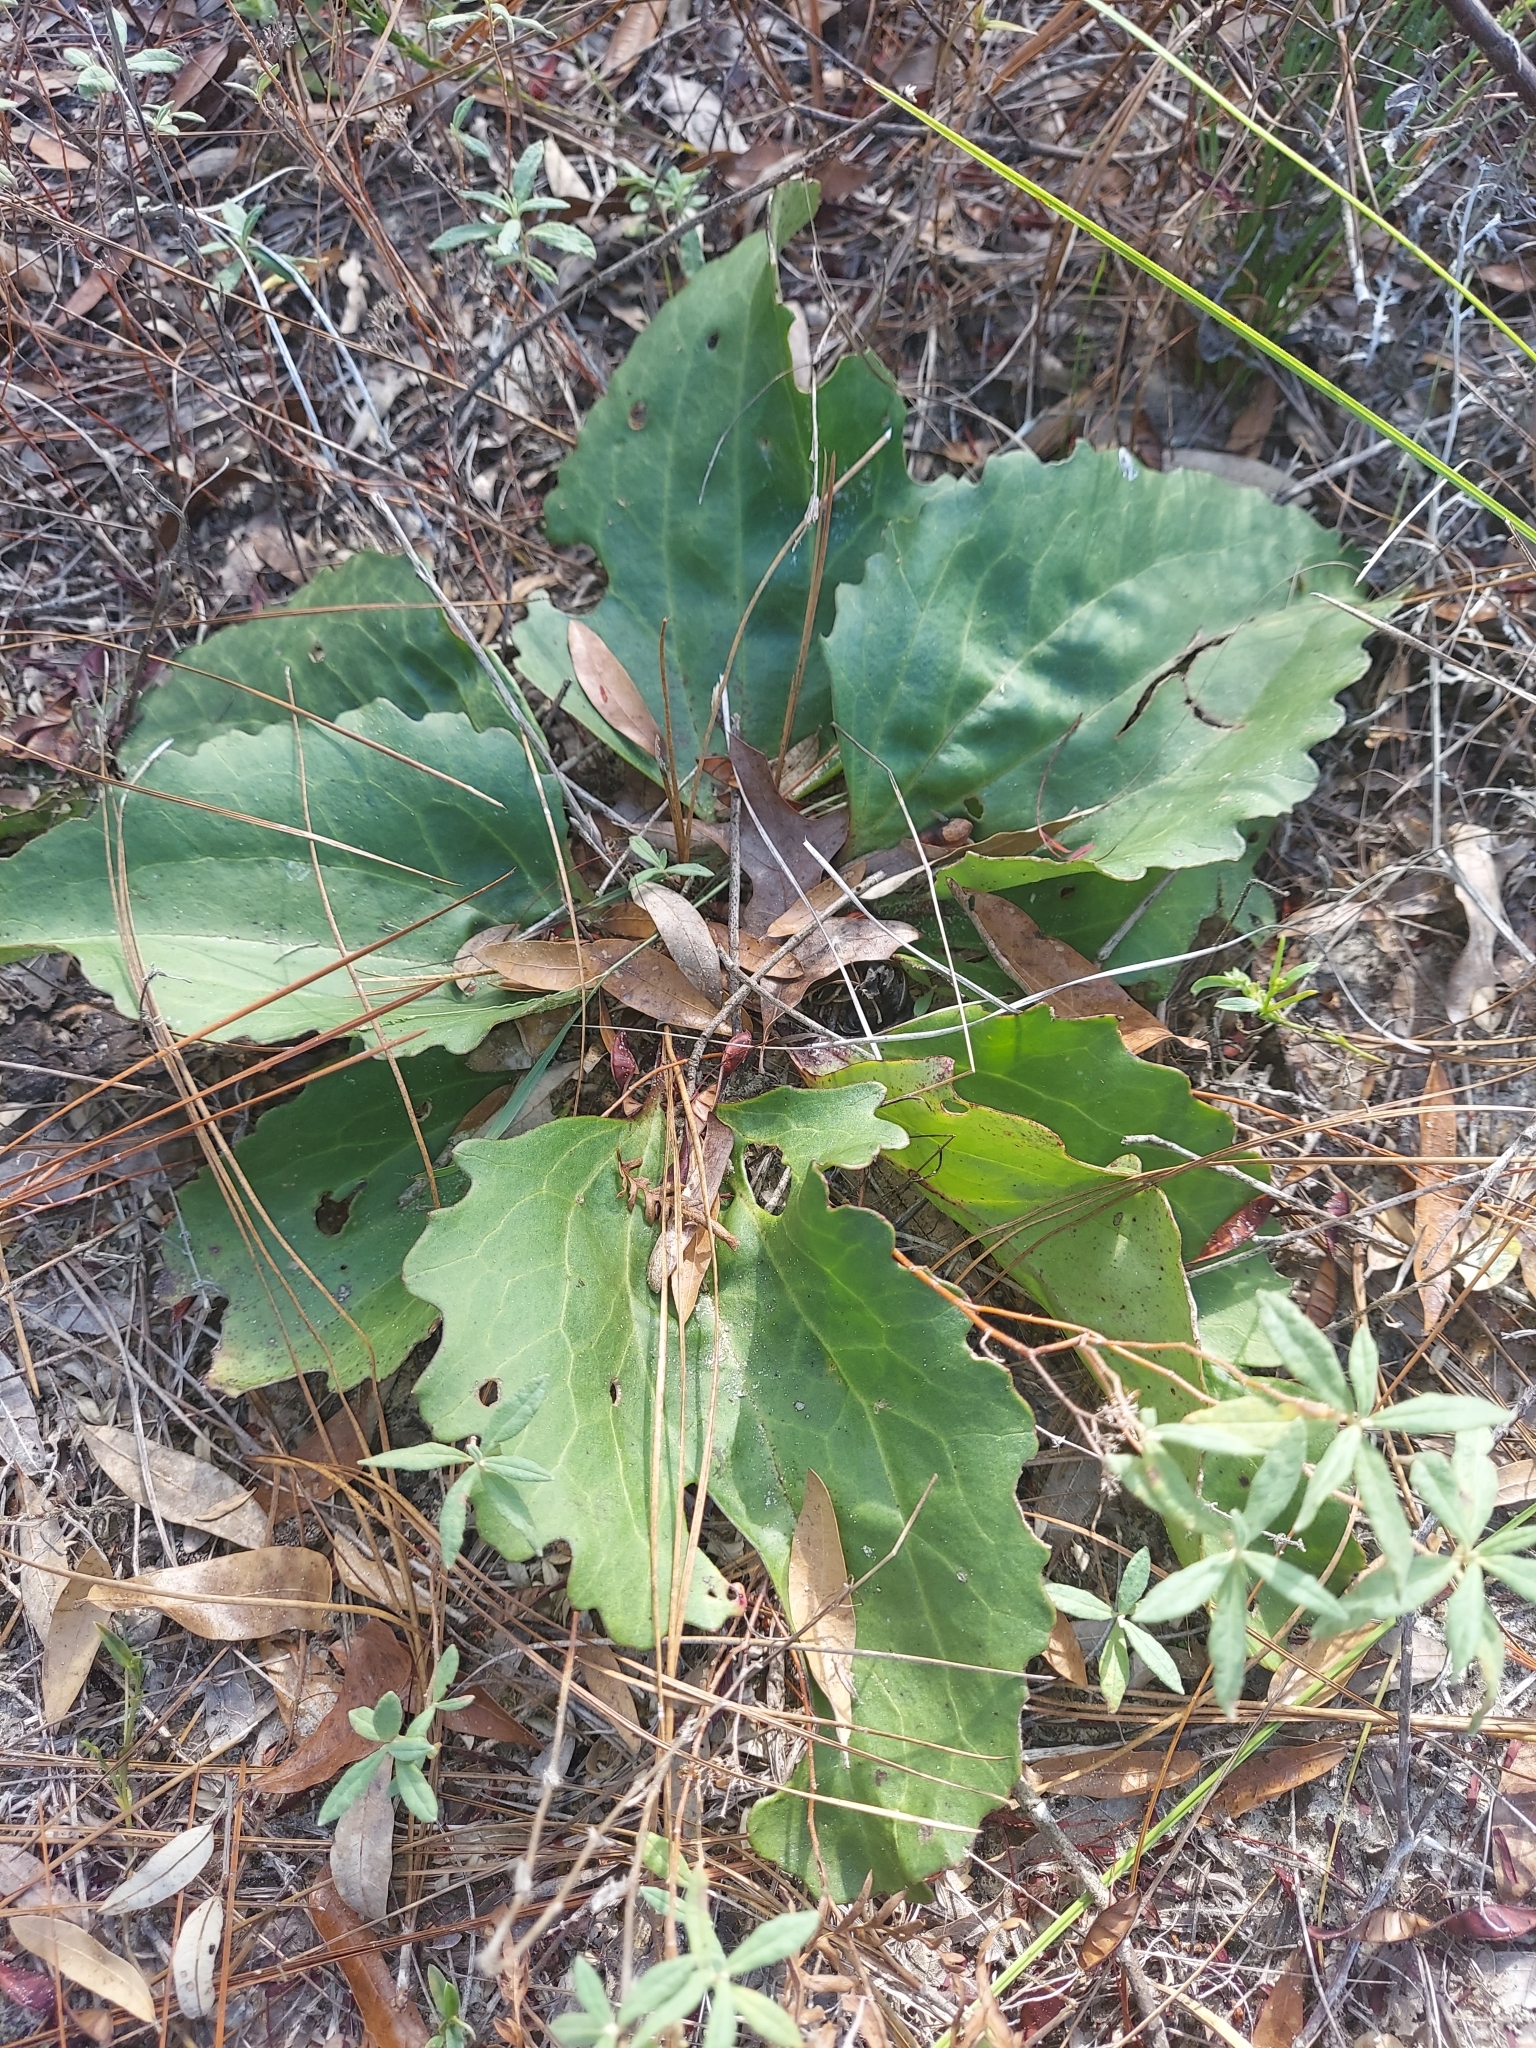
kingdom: Plantae
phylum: Tracheophyta
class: Magnoliopsida
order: Asterales
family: Asteraceae
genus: Arnoglossum
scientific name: Arnoglossum floridanum
